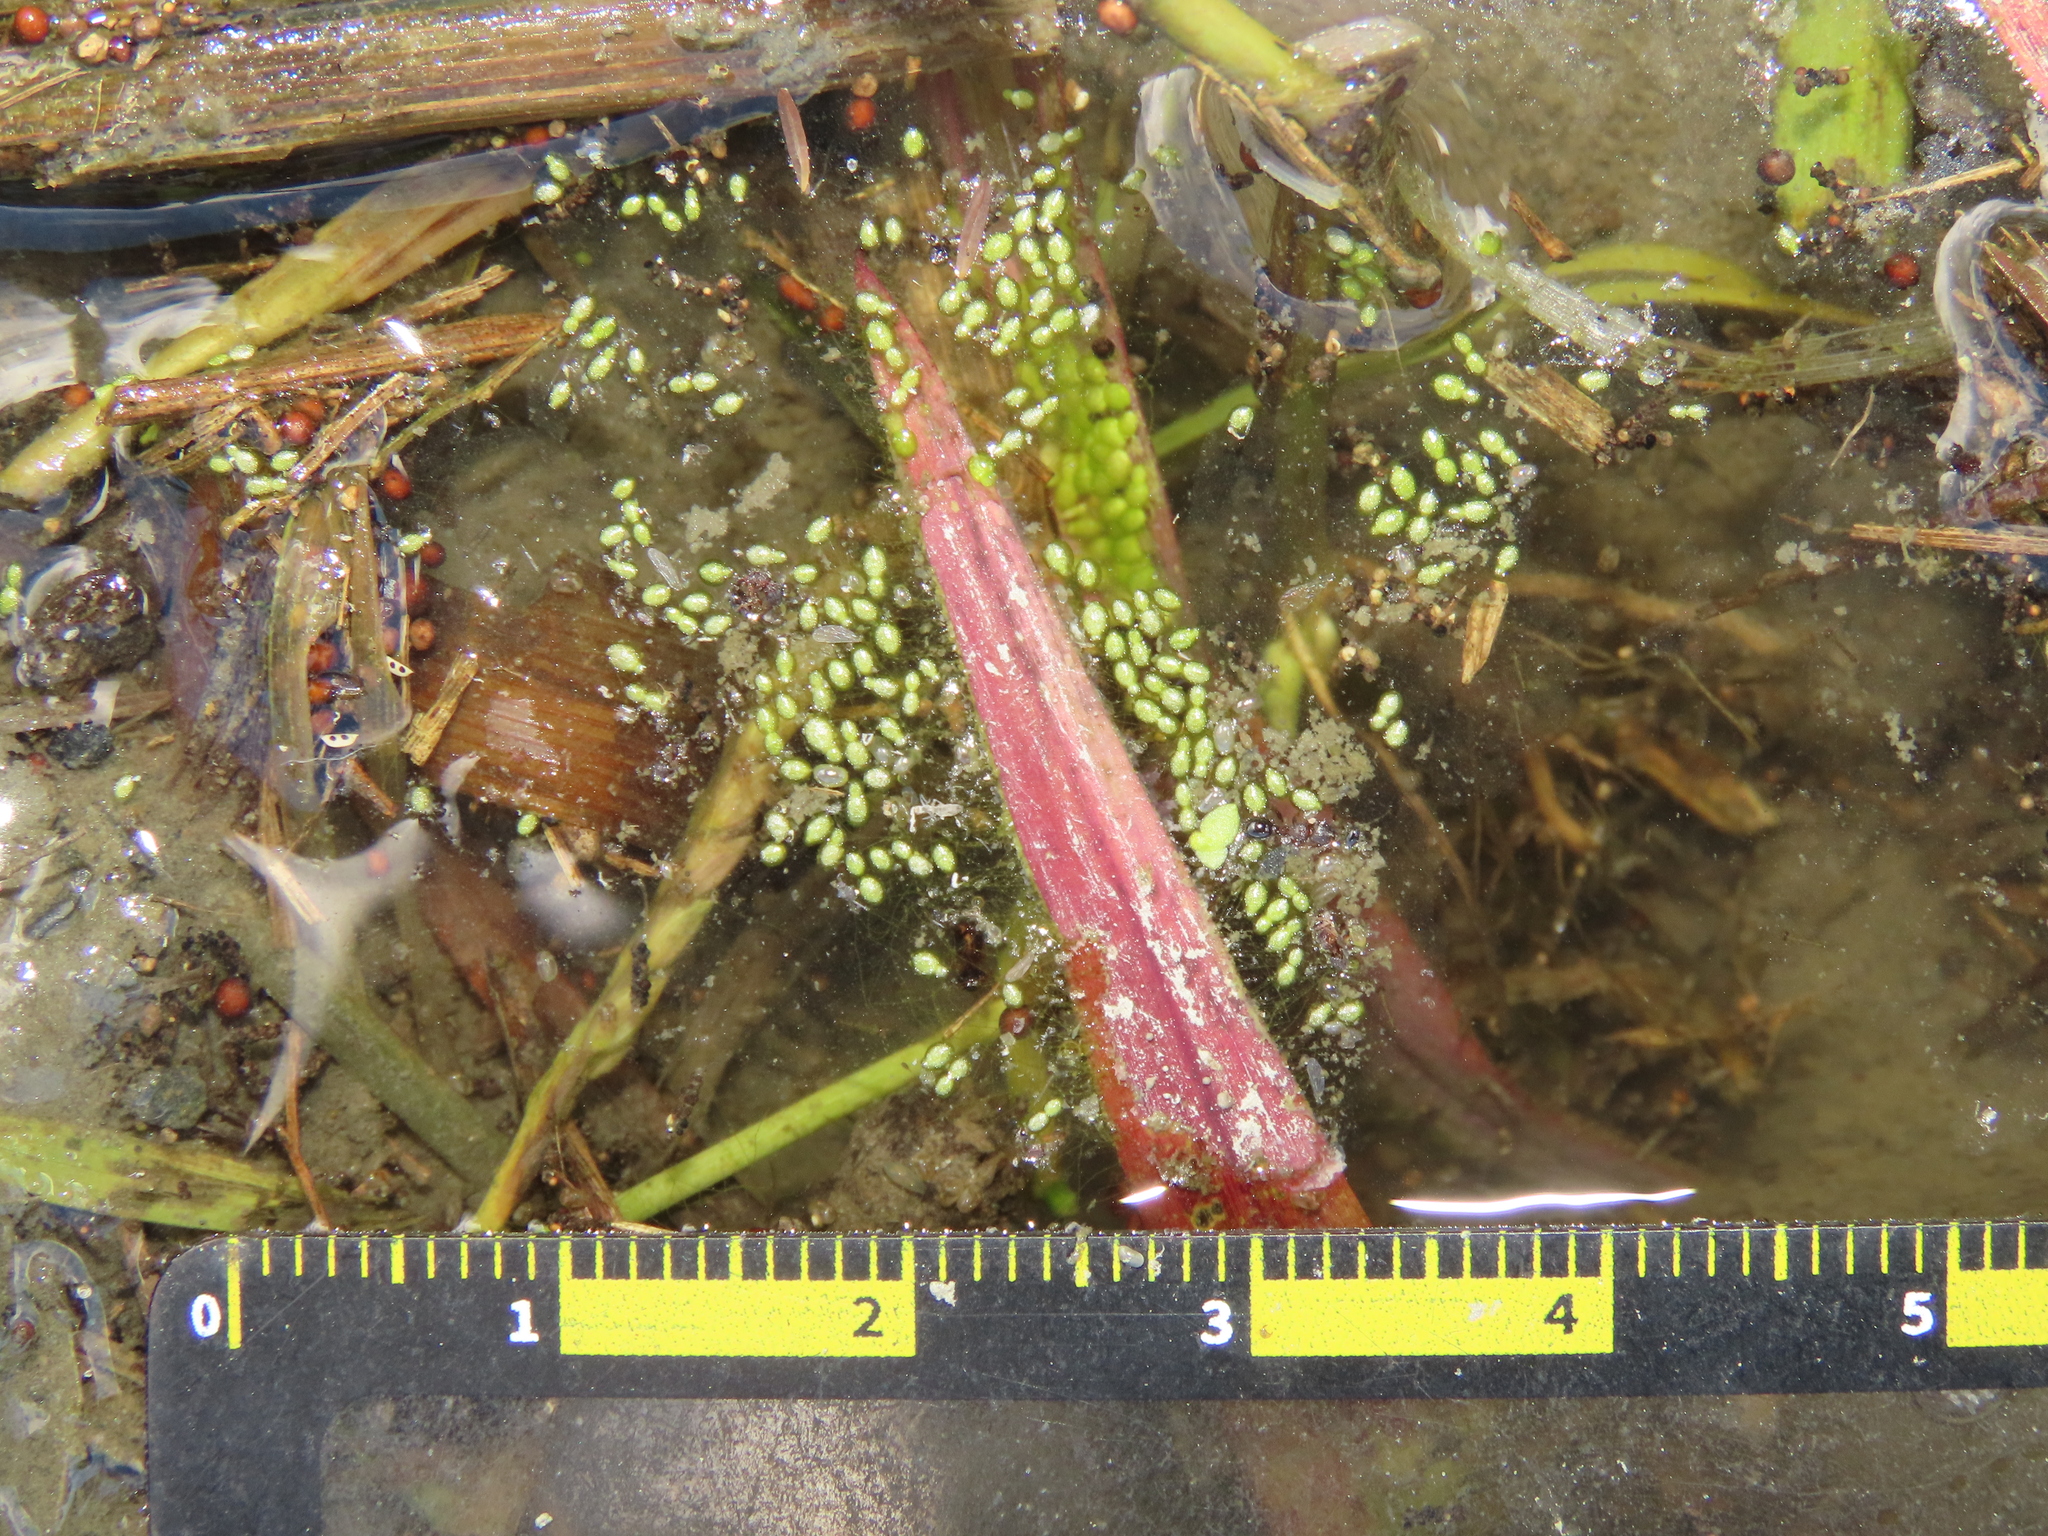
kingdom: Plantae
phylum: Tracheophyta
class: Liliopsida
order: Alismatales
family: Araceae
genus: Wolffia
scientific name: Wolffia globosa
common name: Asian watermeal
